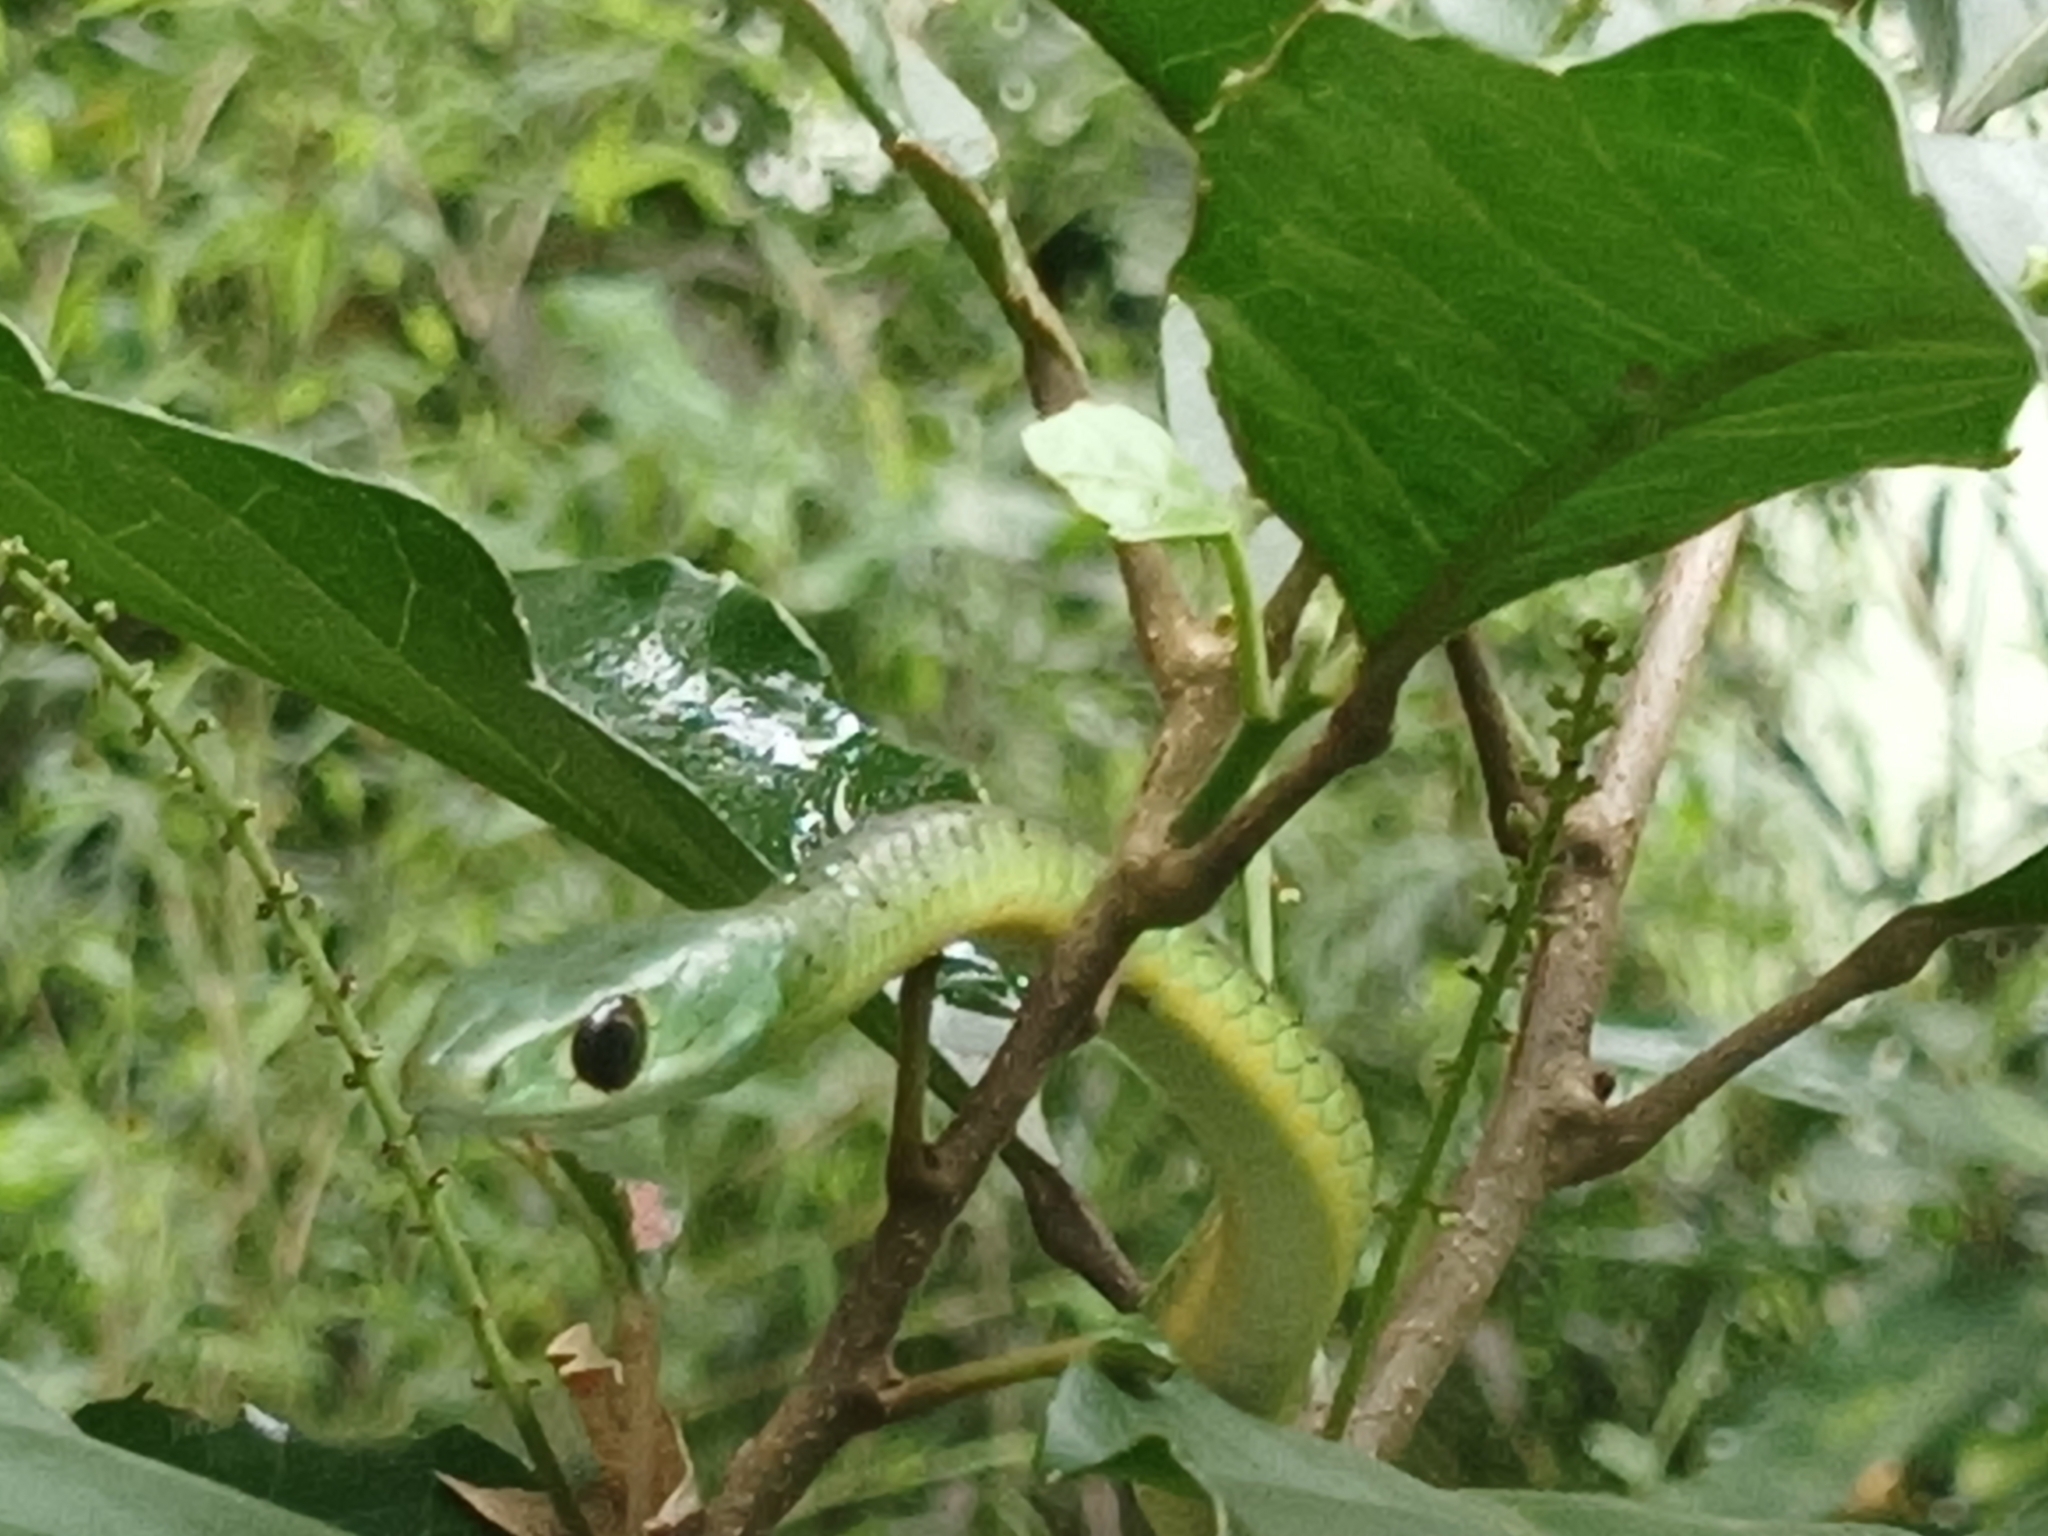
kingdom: Animalia
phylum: Chordata
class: Squamata
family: Colubridae
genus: Philothamnus
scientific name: Philothamnus occidentalis
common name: Western natal green snake
